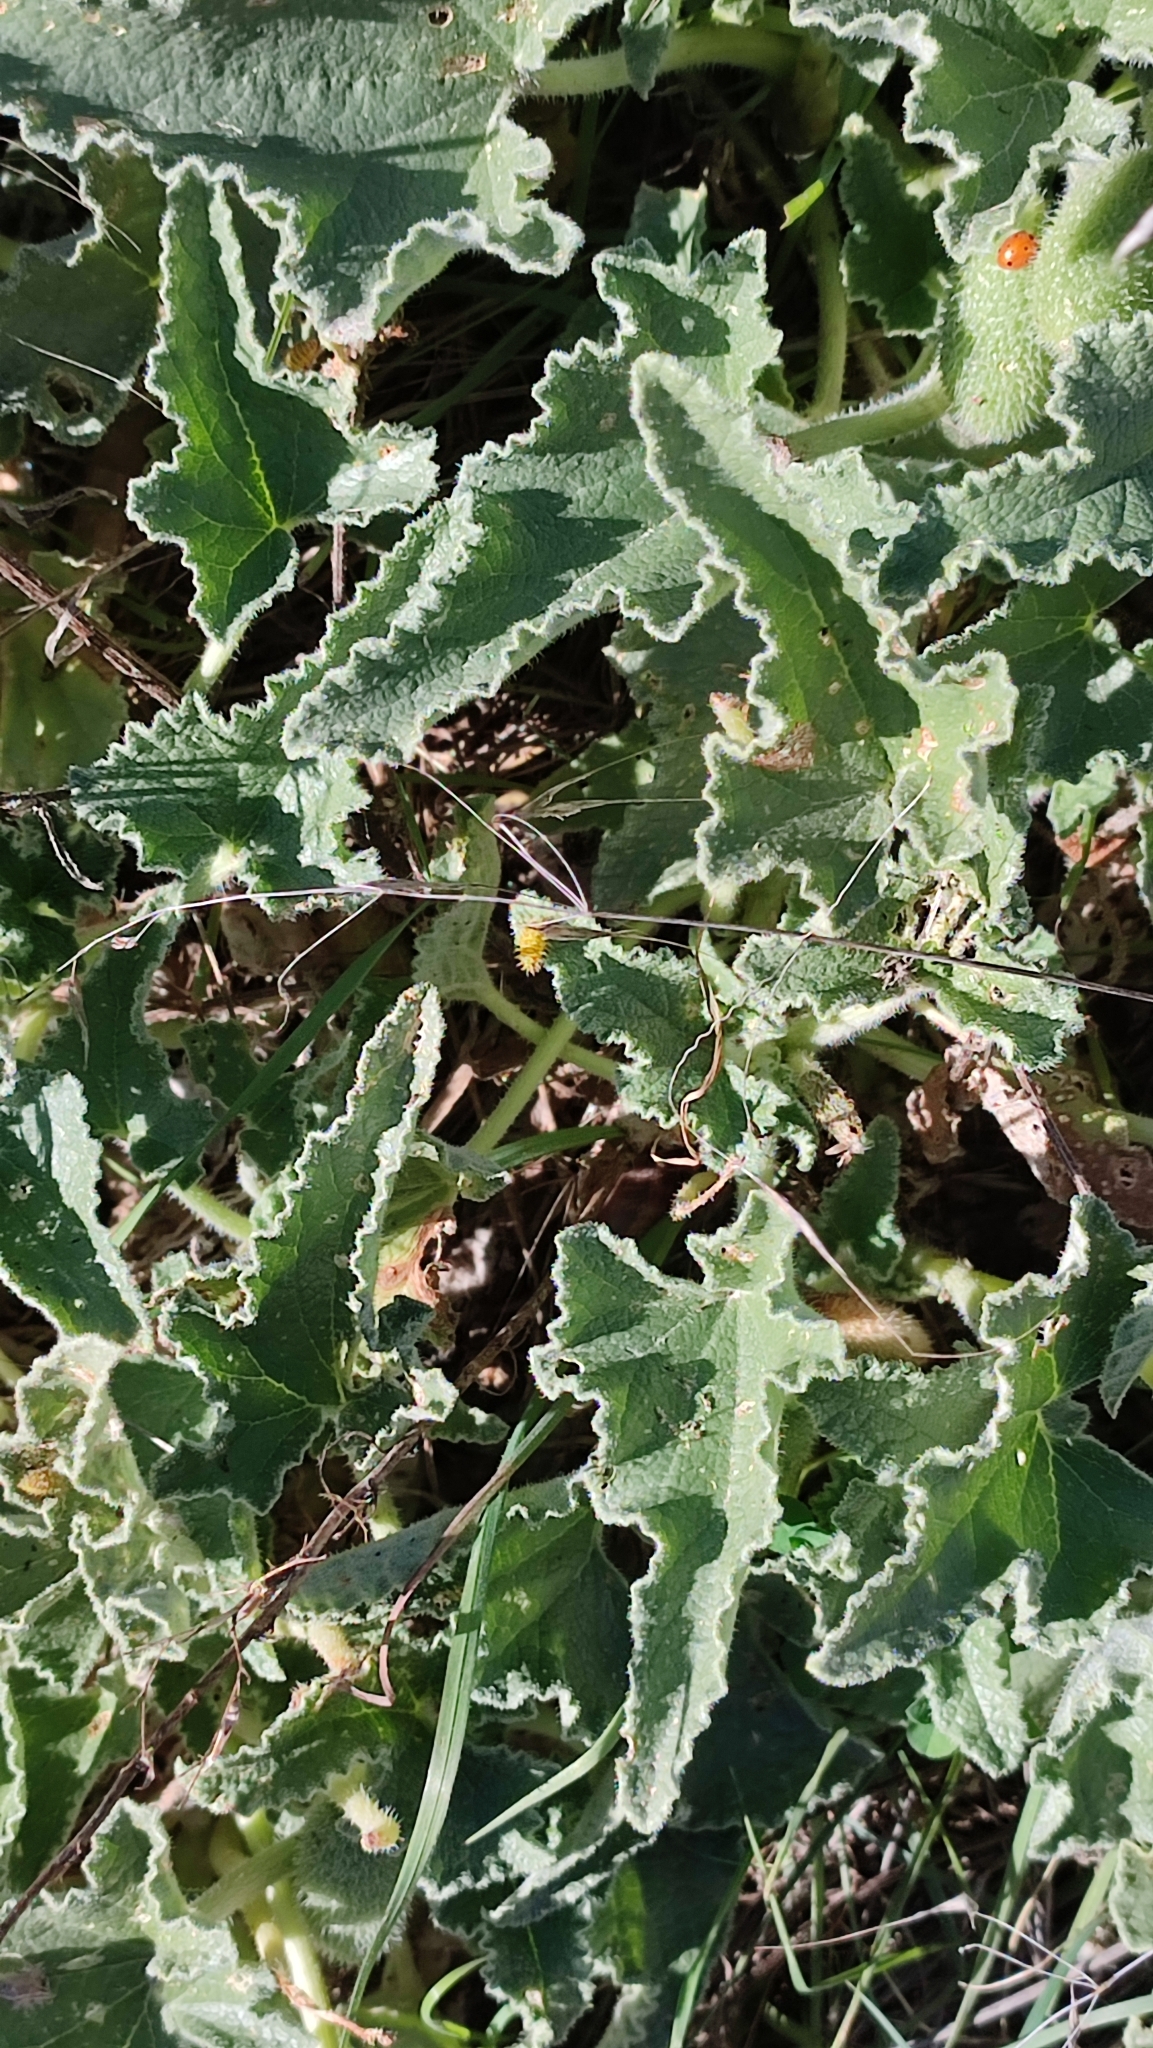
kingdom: Plantae
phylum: Tracheophyta
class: Magnoliopsida
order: Cucurbitales
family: Cucurbitaceae
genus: Ecballium
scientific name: Ecballium elaterium
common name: Squirting cucumber
